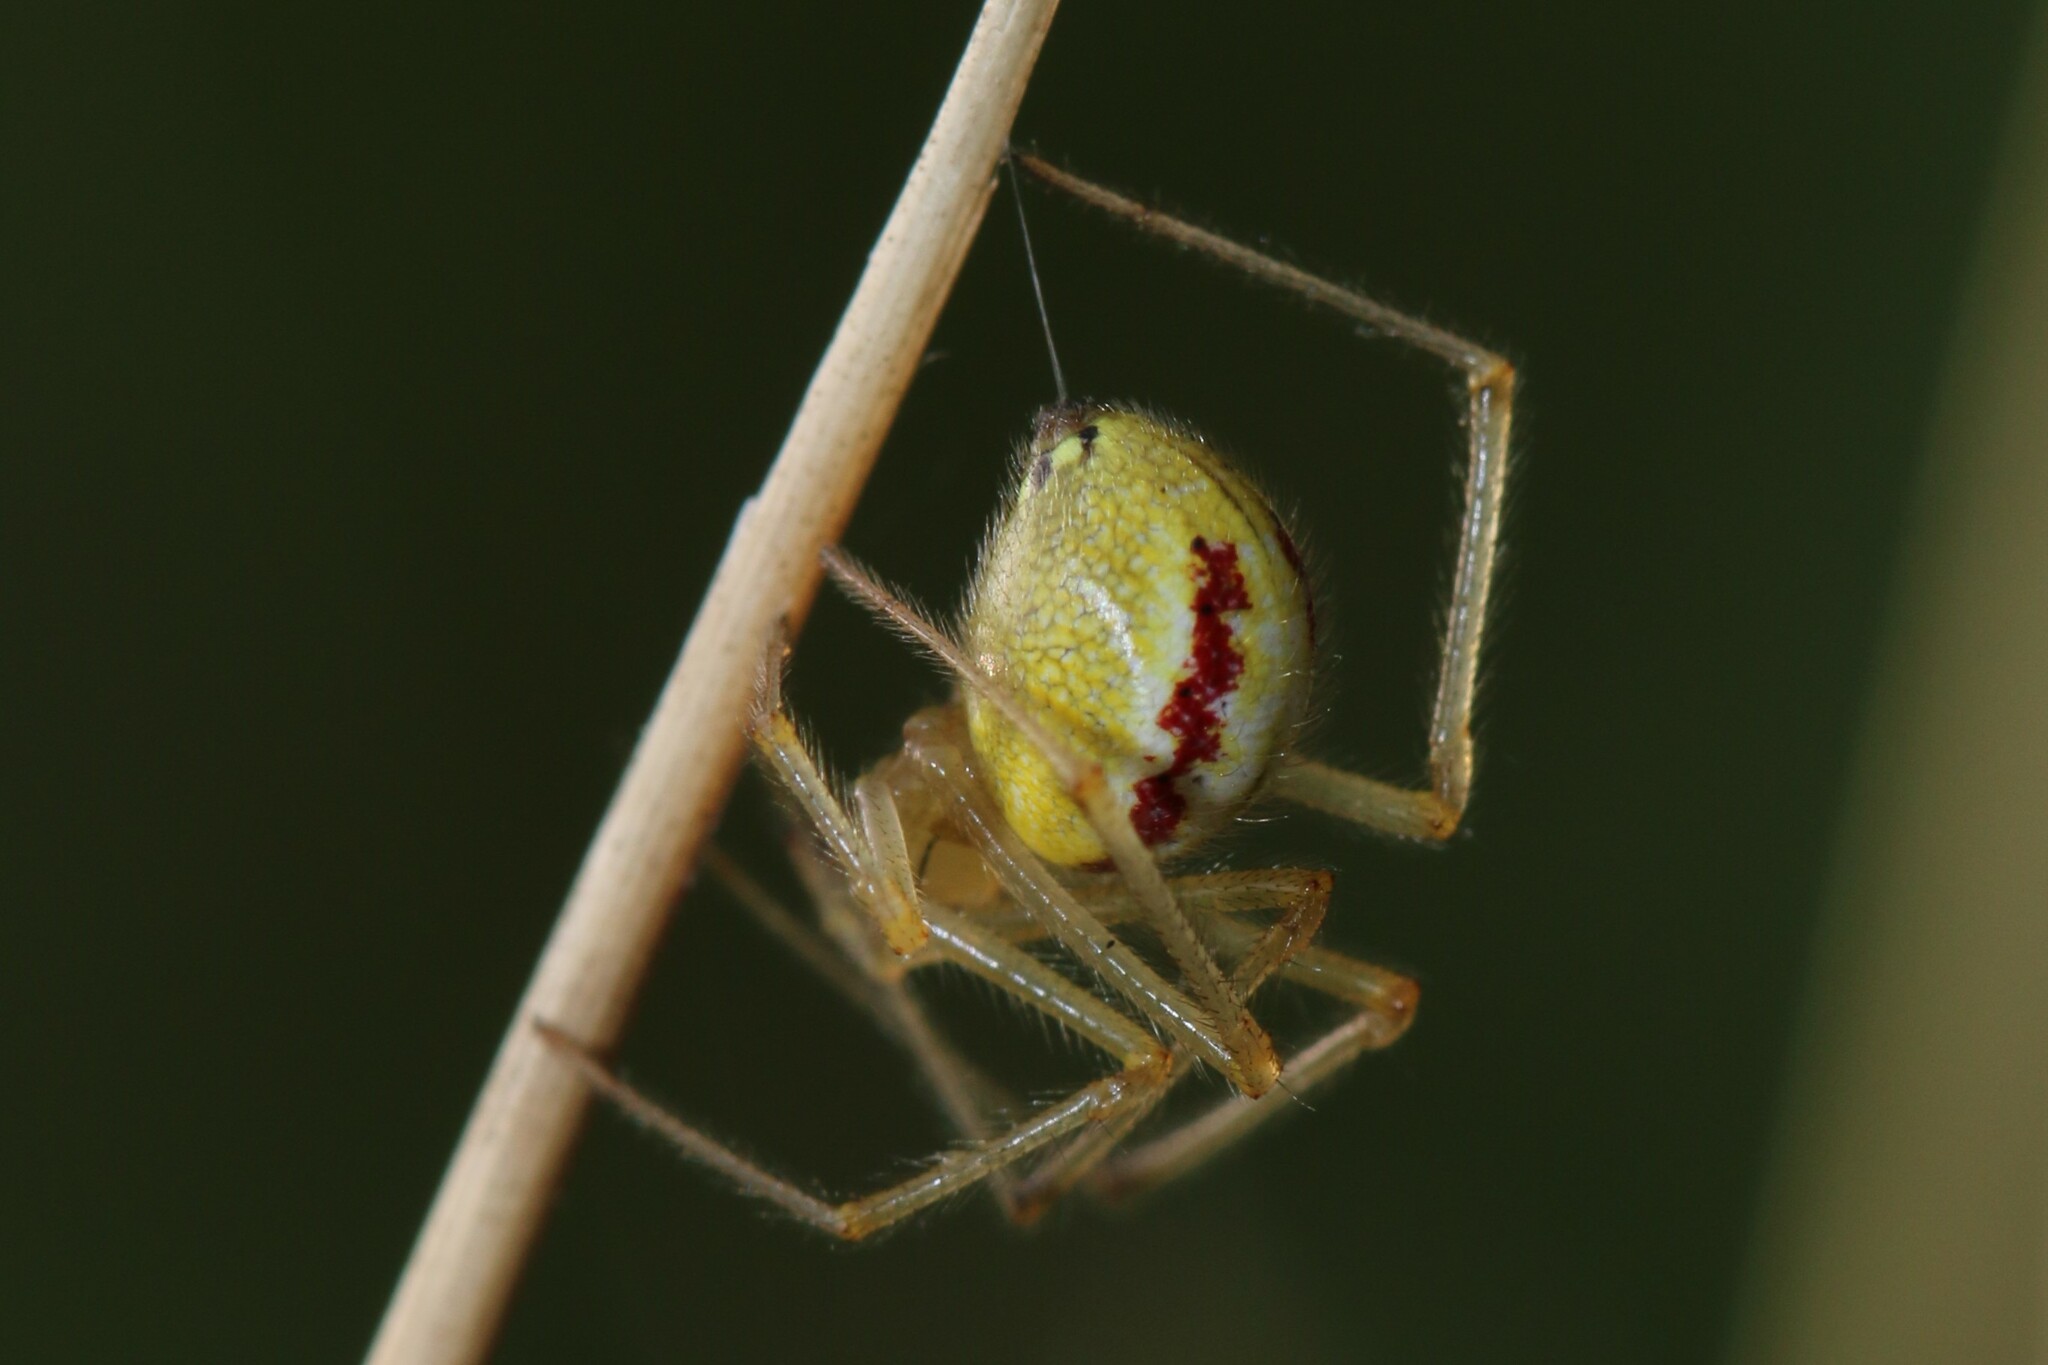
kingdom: Animalia
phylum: Arthropoda
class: Arachnida
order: Araneae
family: Theridiidae
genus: Enoplognatha
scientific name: Enoplognatha
